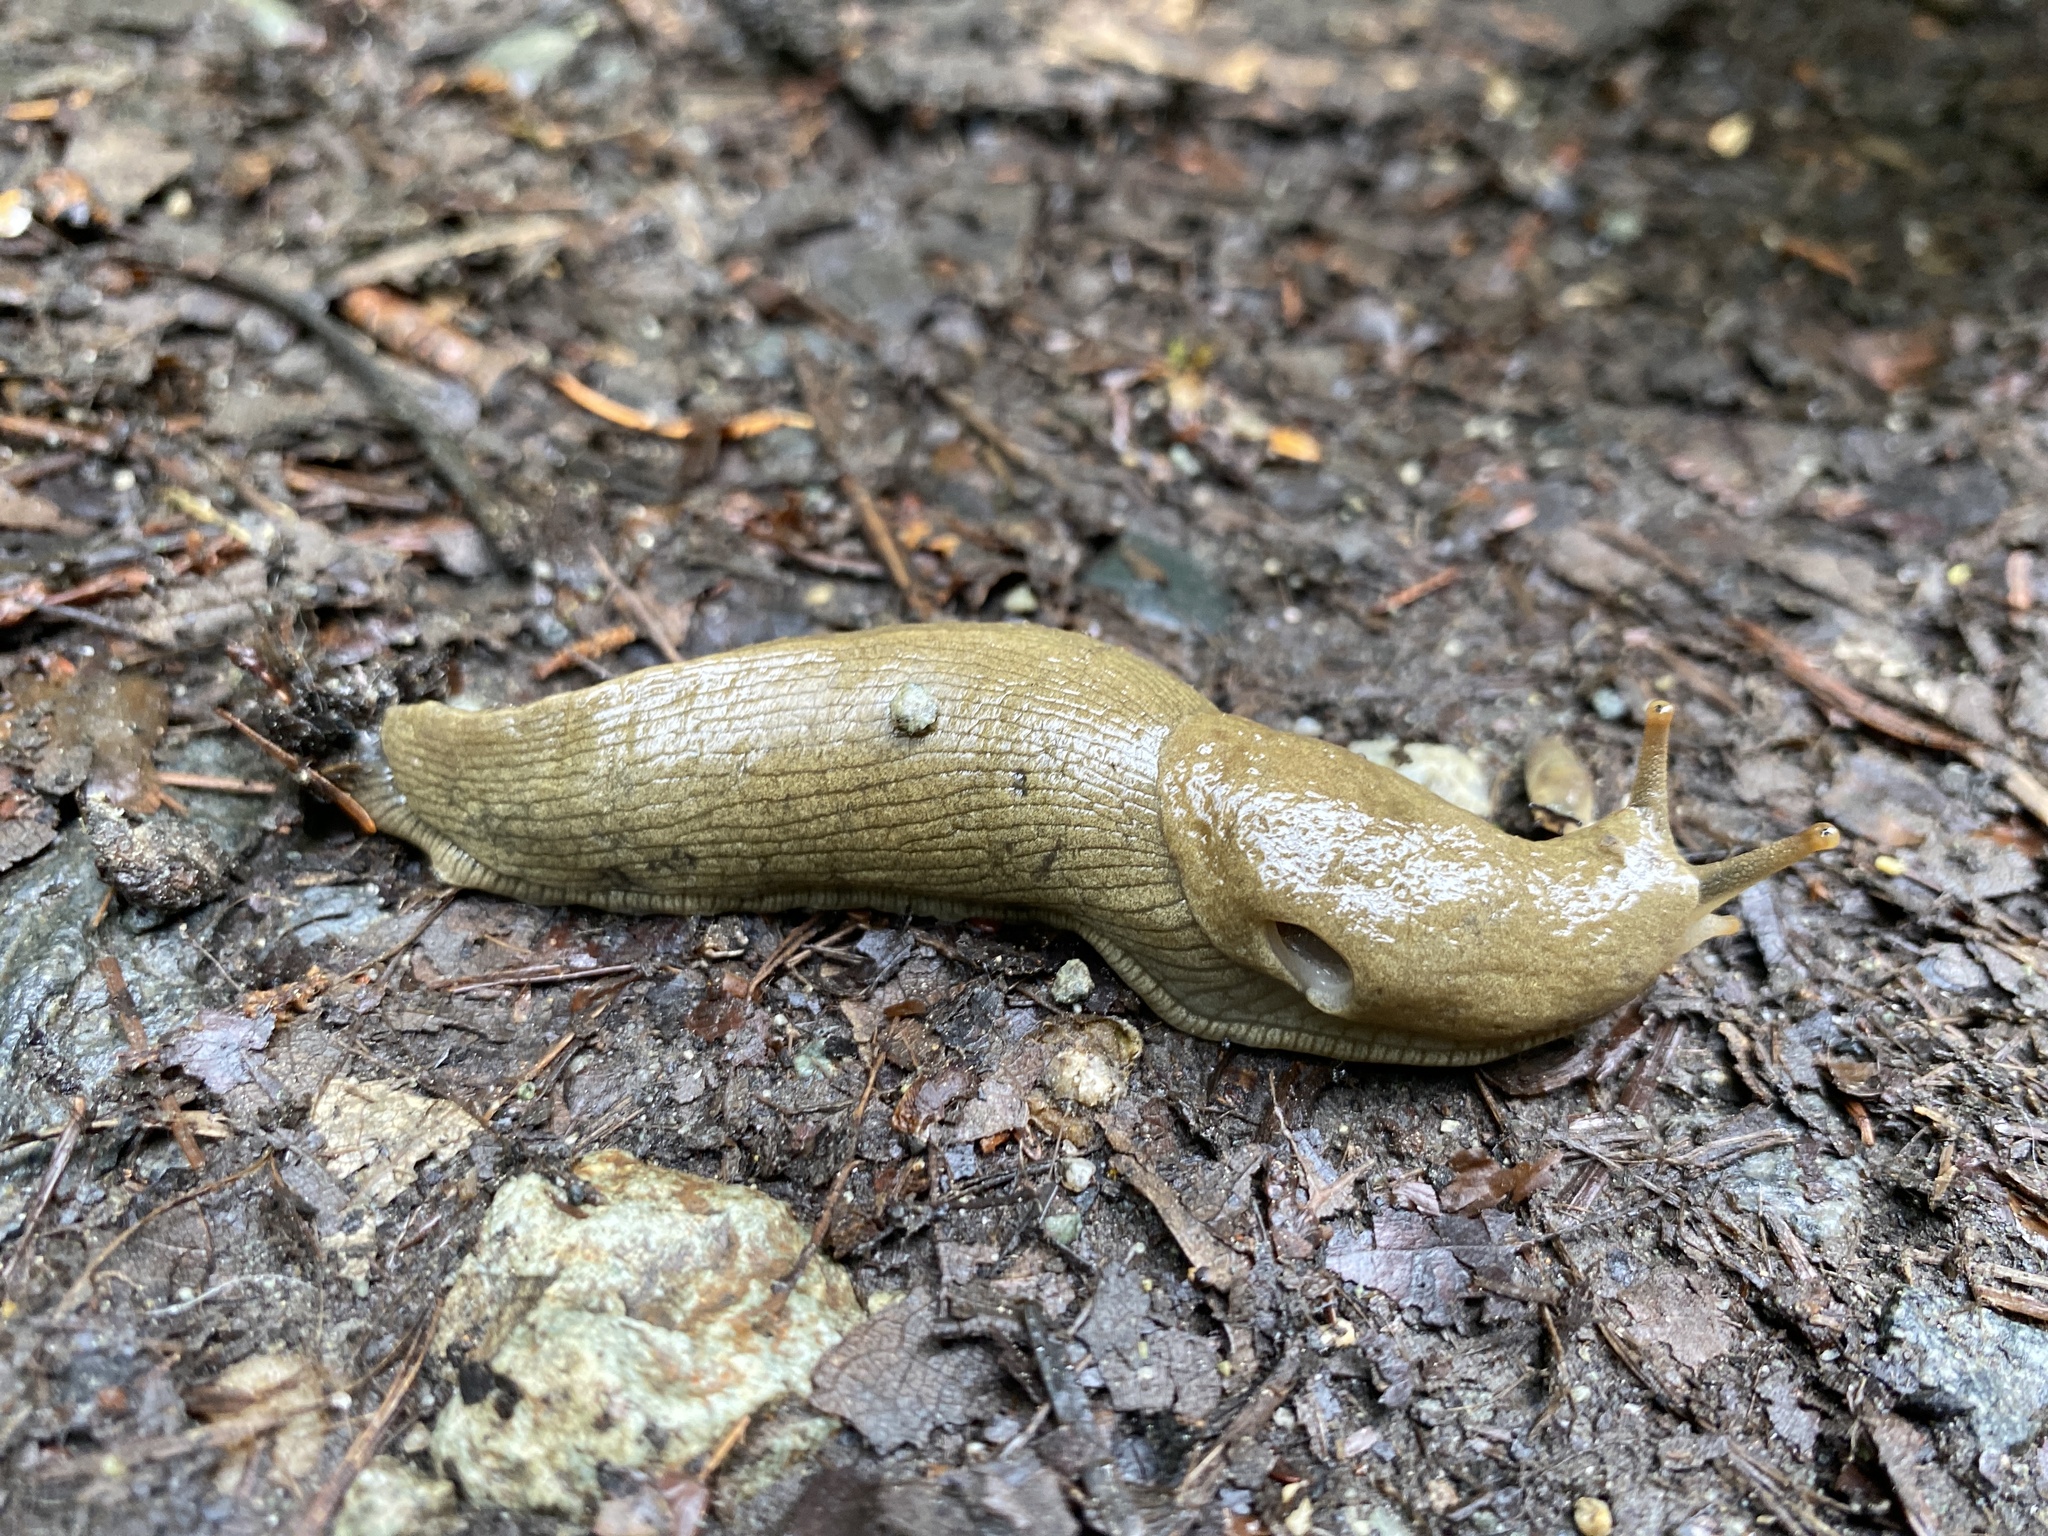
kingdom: Animalia
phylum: Mollusca
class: Gastropoda
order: Stylommatophora
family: Ariolimacidae
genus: Ariolimax
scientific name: Ariolimax columbianus
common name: Pacific banana slug
